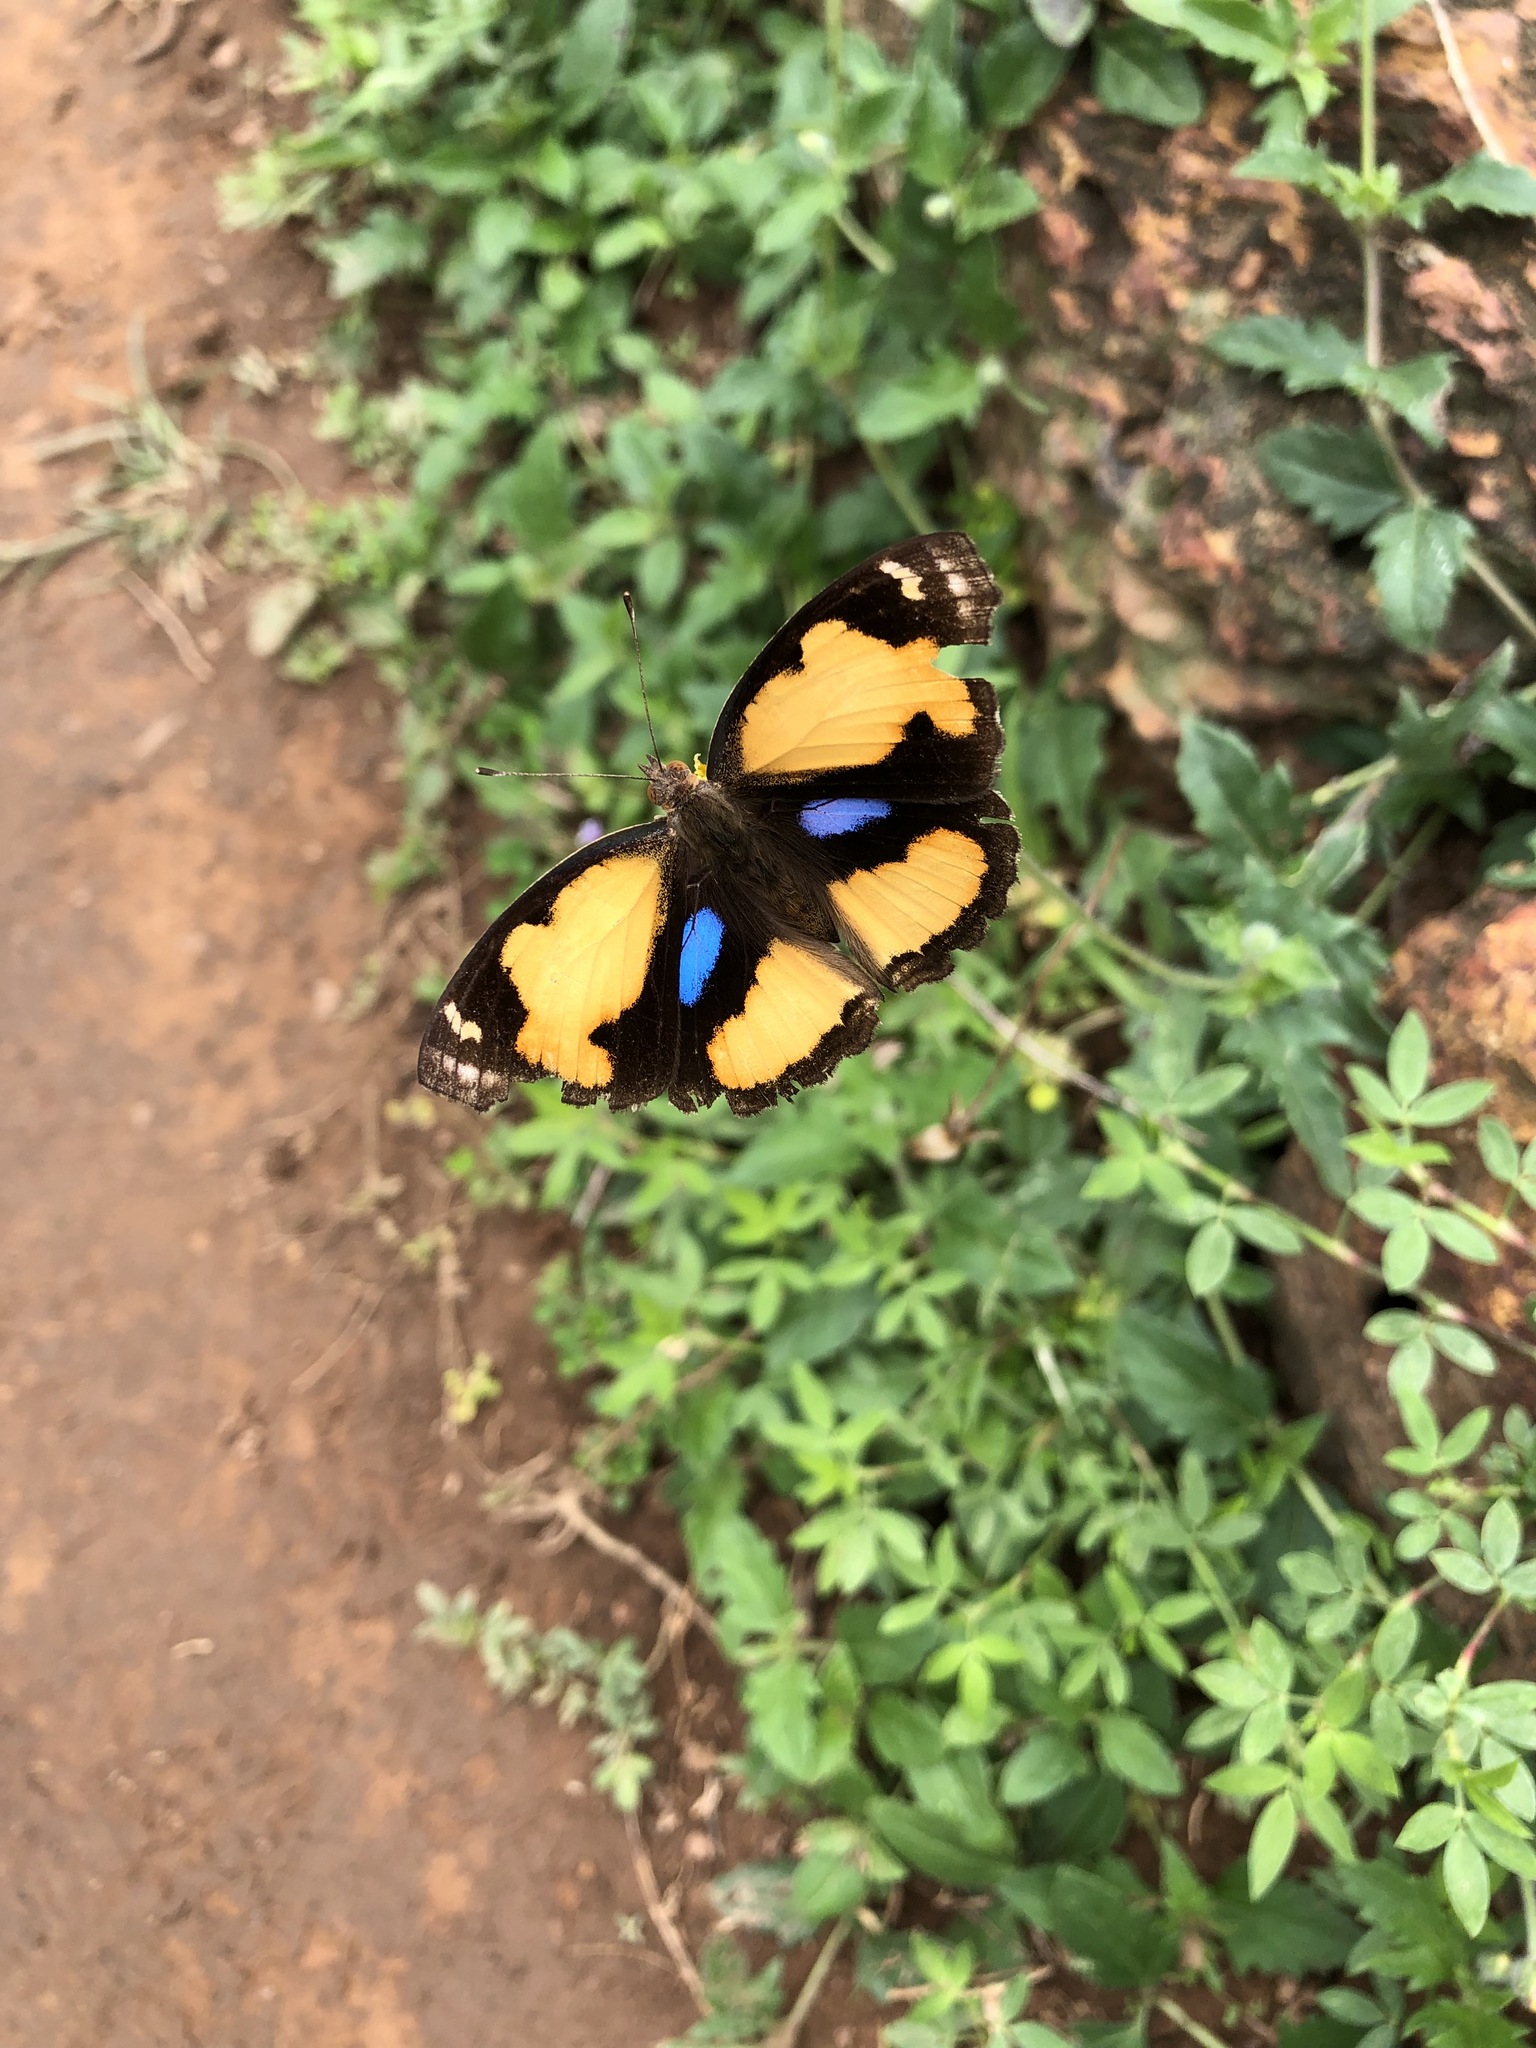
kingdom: Animalia
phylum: Arthropoda
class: Insecta
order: Lepidoptera
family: Nymphalidae
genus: Junonia
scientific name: Junonia hierta
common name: Yellow pansy
